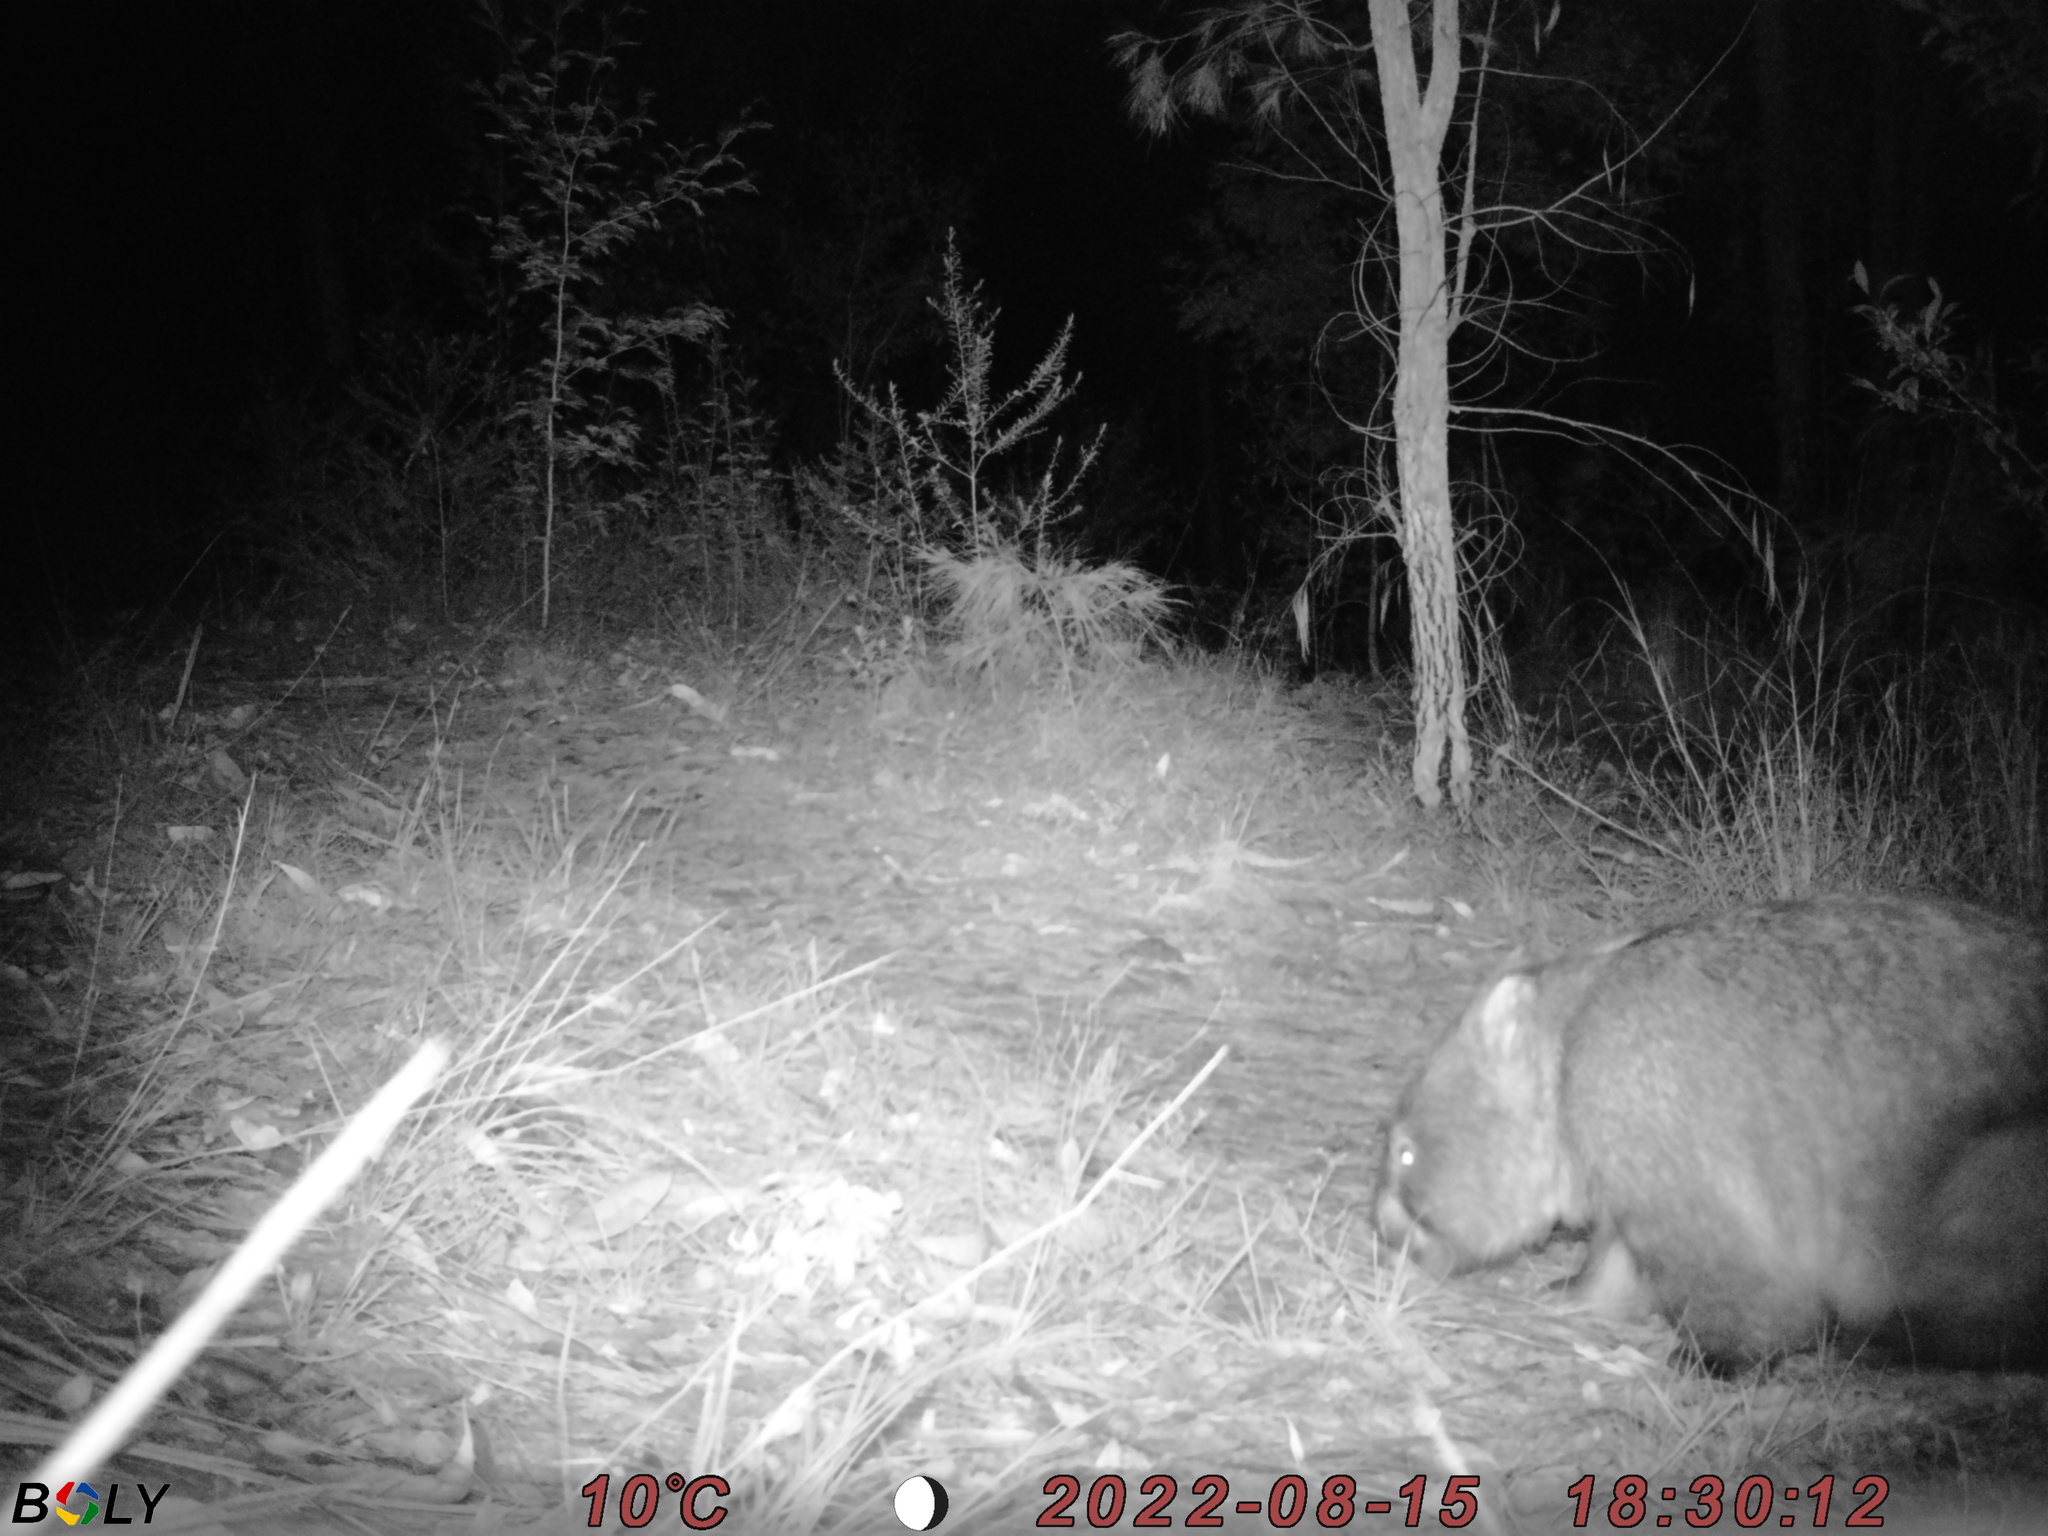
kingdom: Animalia
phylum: Chordata
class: Mammalia
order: Diprotodontia
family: Vombatidae
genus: Vombatus
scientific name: Vombatus ursinus
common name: Common wombat
